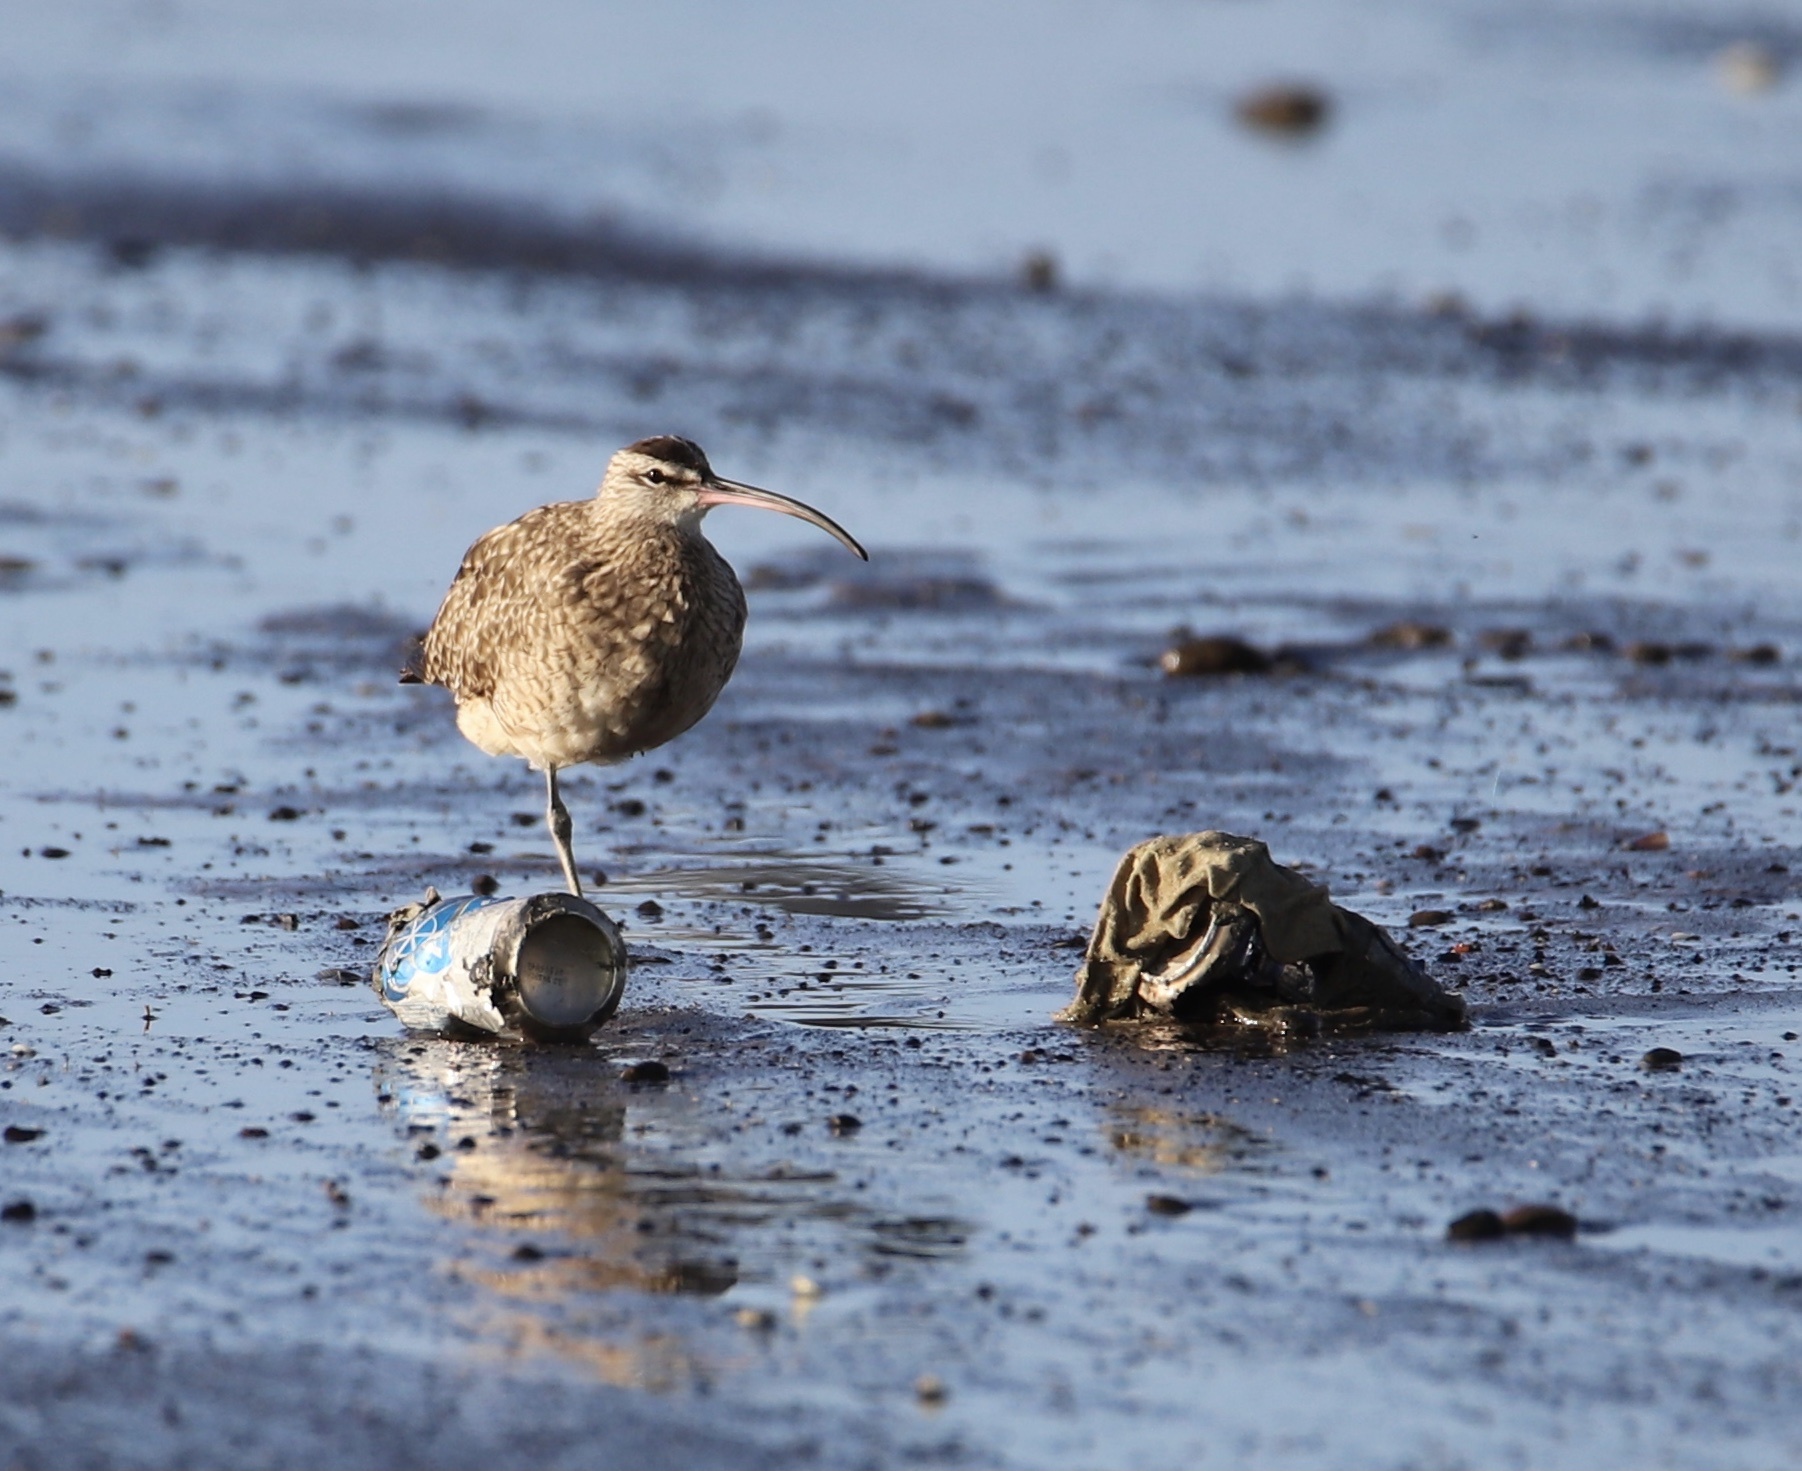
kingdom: Animalia
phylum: Chordata
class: Aves
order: Charadriiformes
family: Scolopacidae
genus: Numenius
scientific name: Numenius phaeopus
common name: Whimbrel
